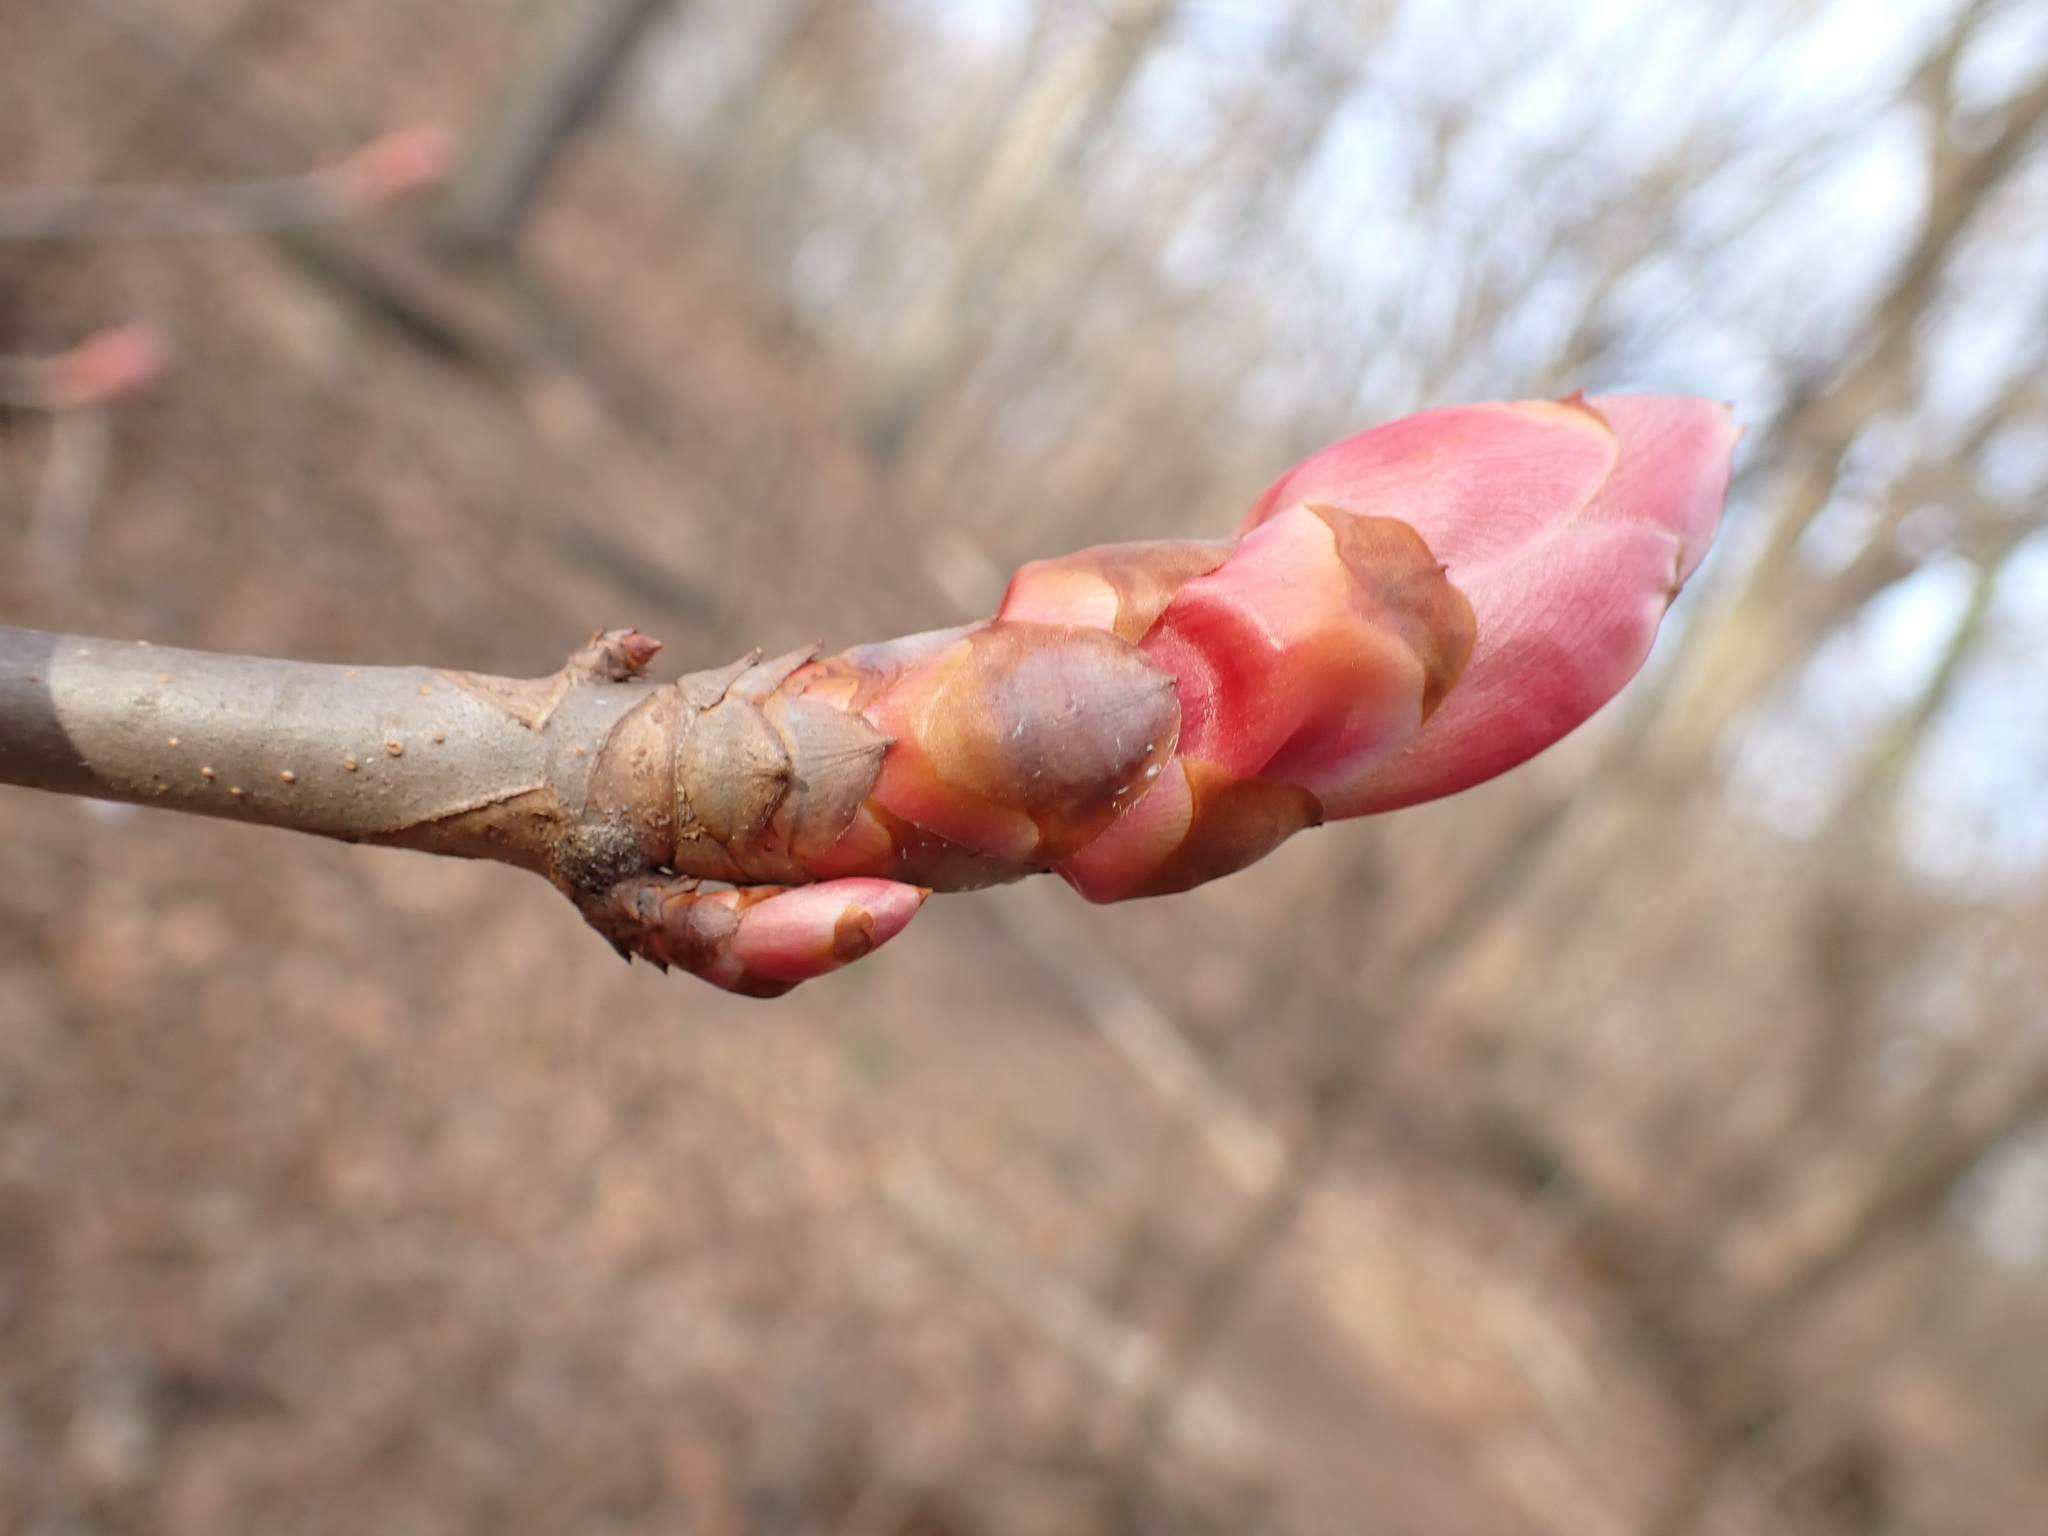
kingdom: Plantae
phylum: Tracheophyta
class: Magnoliopsida
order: Sapindales
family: Sapindaceae
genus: Aesculus
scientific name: Aesculus flava
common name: Yellow buckeye
